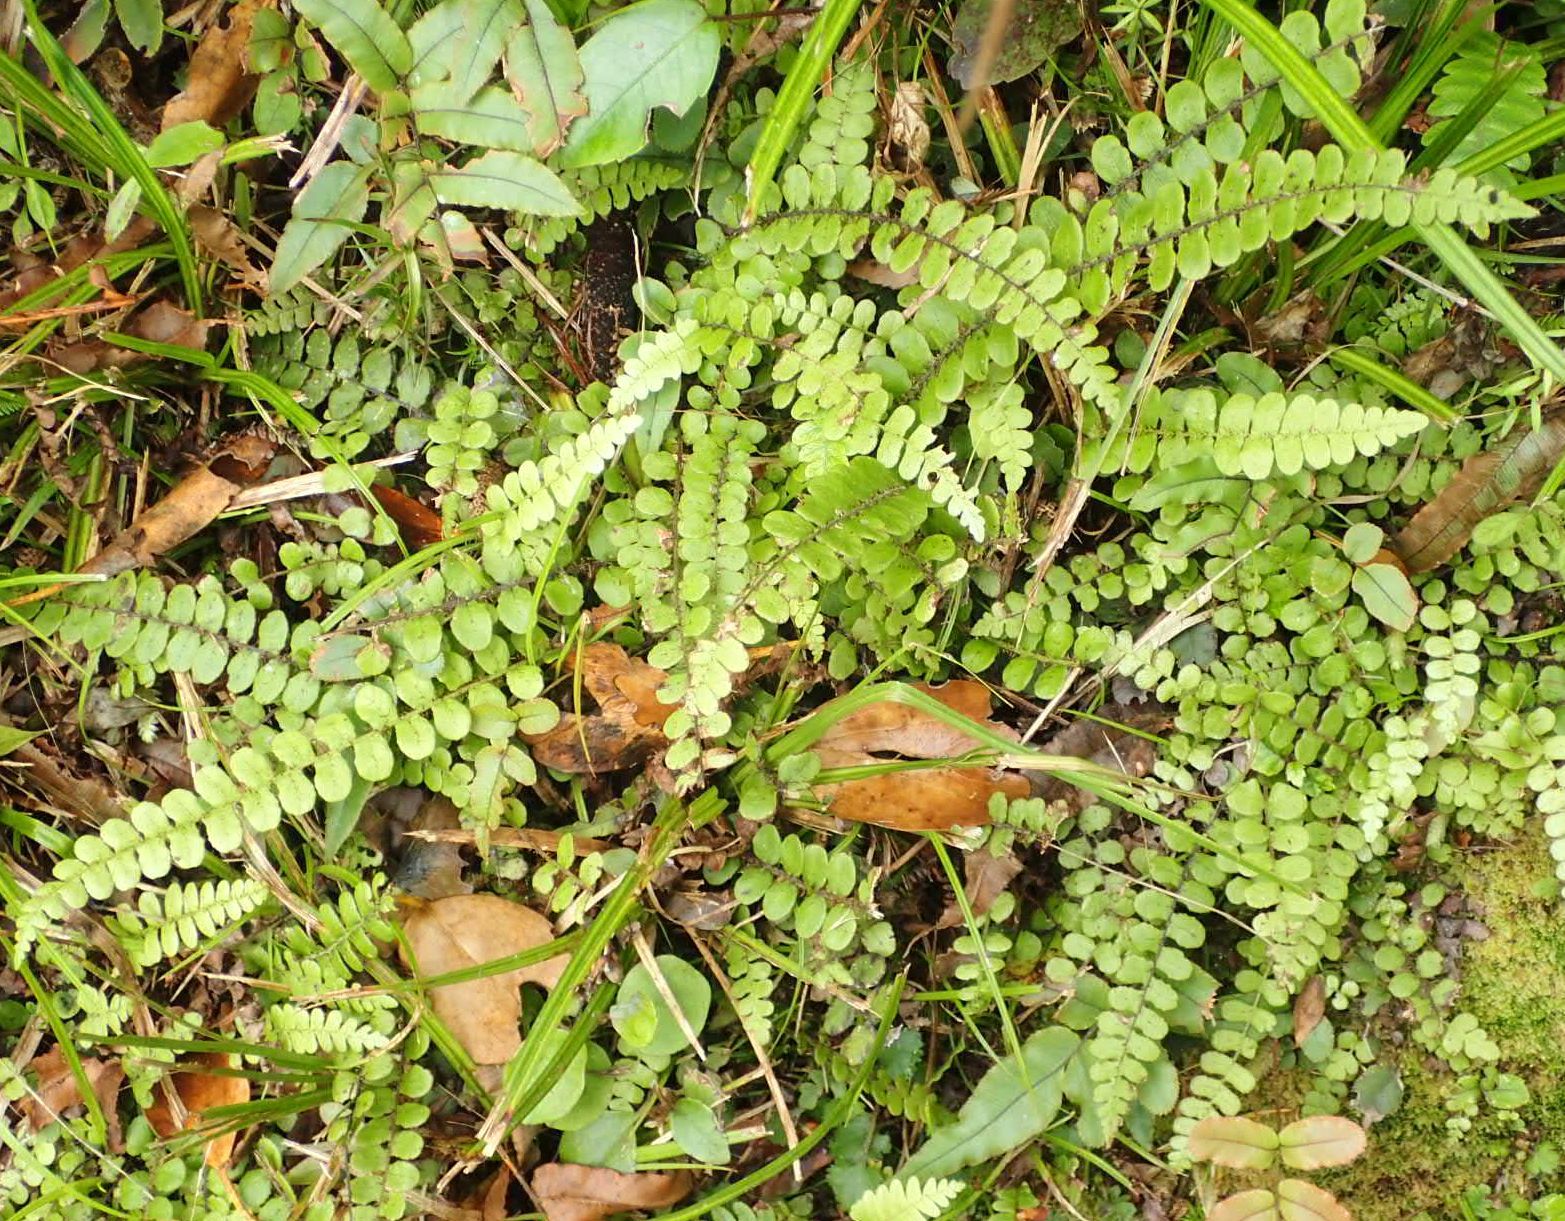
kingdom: Plantae
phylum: Tracheophyta
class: Polypodiopsida
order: Polypodiales
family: Blechnaceae
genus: Cranfillia
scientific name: Cranfillia fluviatilis
